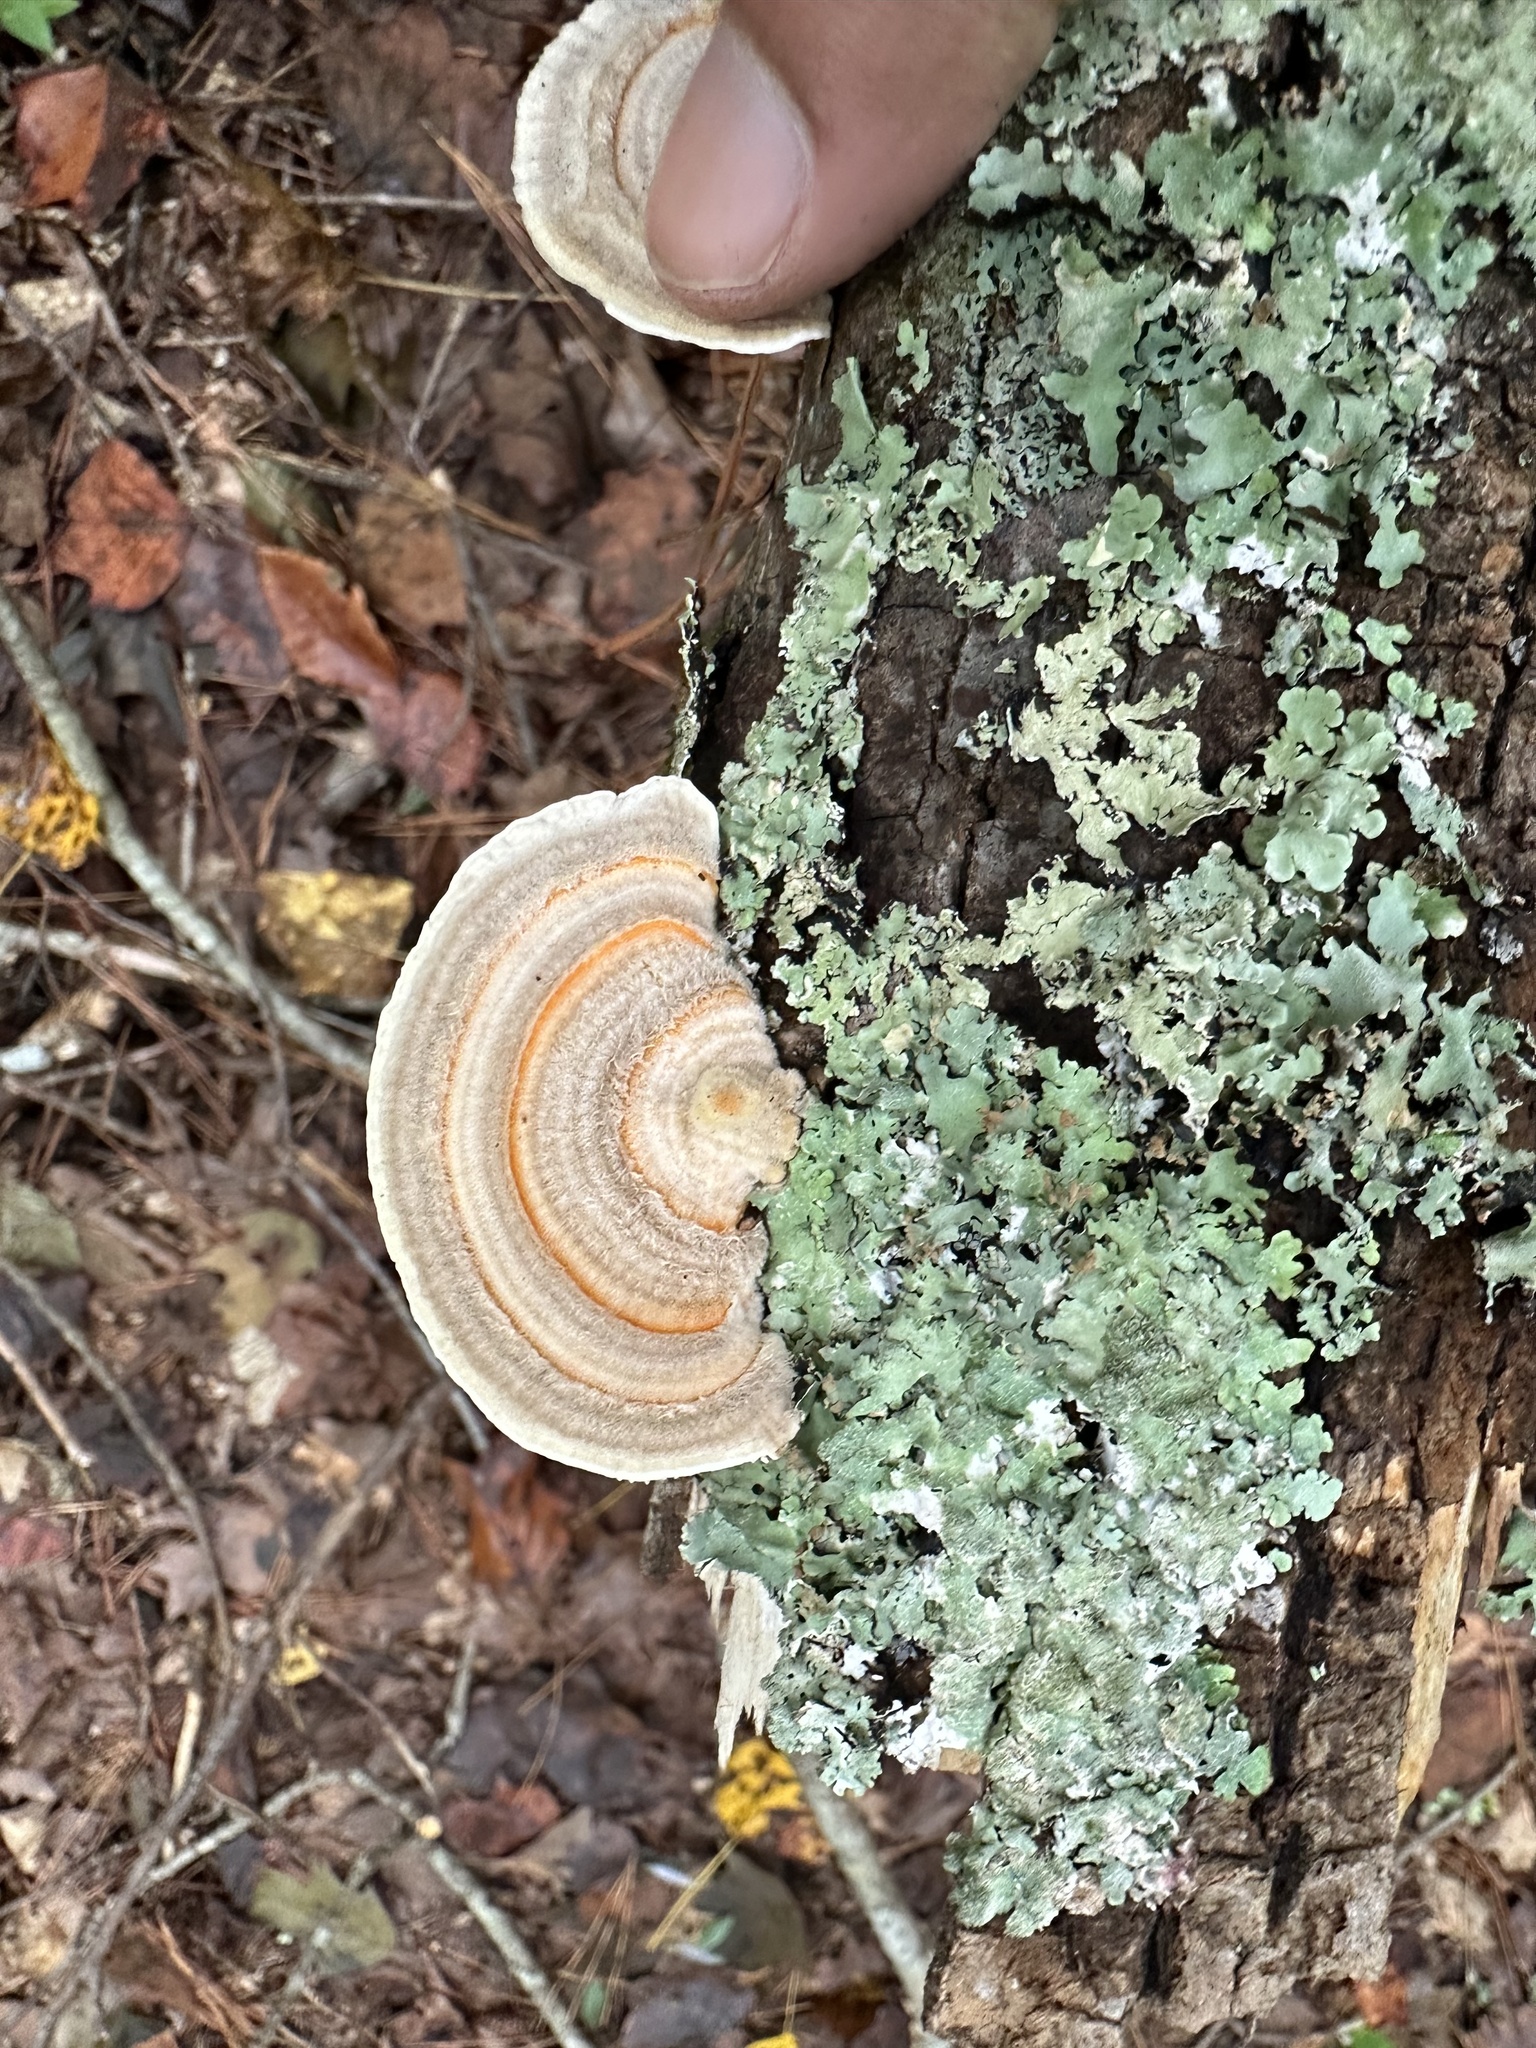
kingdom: Fungi
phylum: Basidiomycota
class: Agaricomycetes
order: Polyporales
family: Polyporaceae
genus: Lenzites
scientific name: Lenzites betulinus
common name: Birch mazegill
